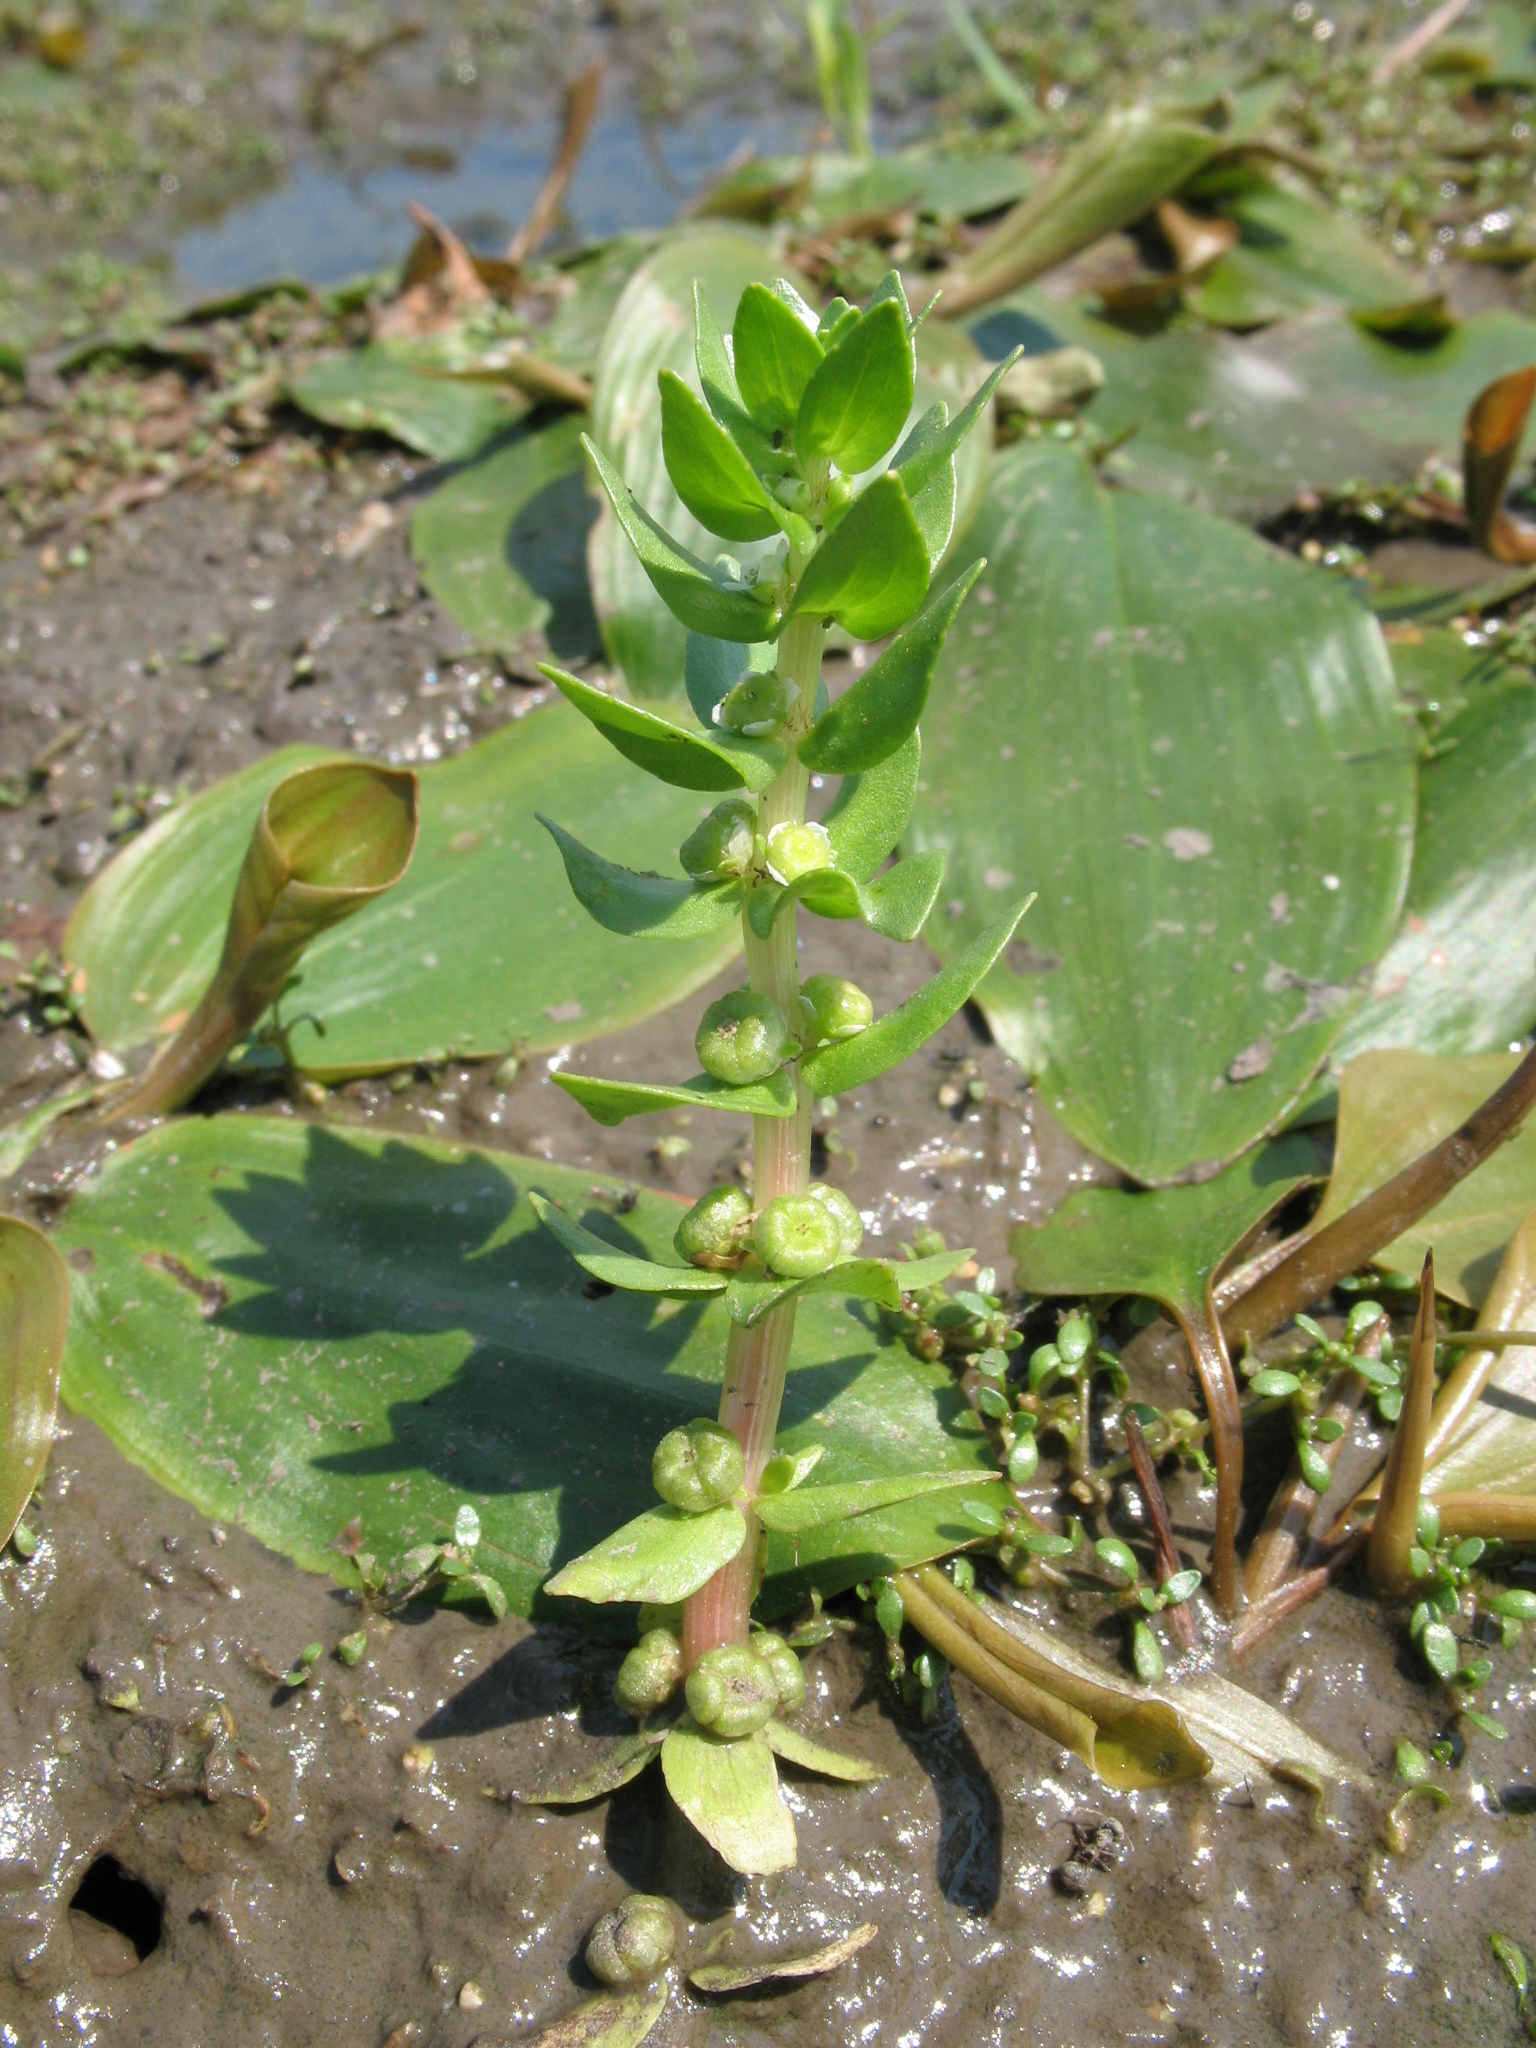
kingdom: Plantae
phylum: Tracheophyta
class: Magnoliopsida
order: Malpighiales
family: Elatinaceae
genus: Elatine
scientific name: Elatine alsinastrum
